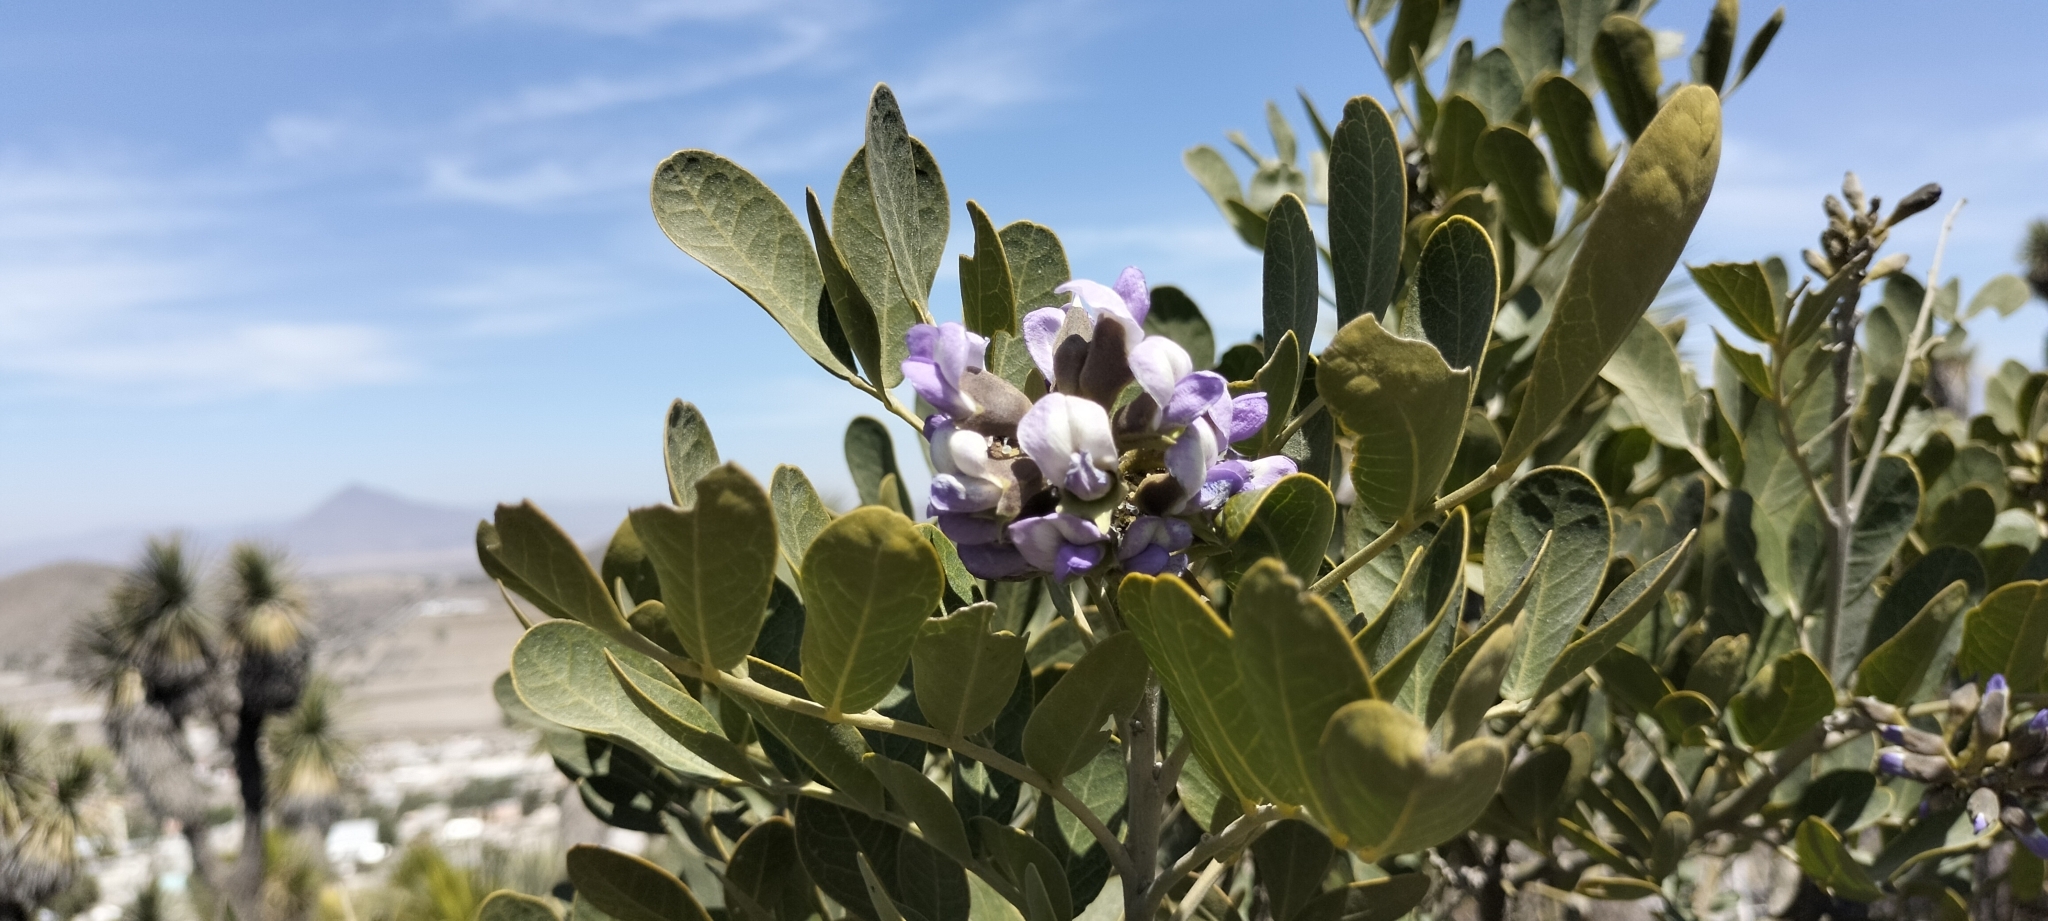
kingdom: Plantae
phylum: Tracheophyta
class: Magnoliopsida
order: Fabales
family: Fabaceae
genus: Dermatophyllum
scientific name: Dermatophyllum secundiflorum
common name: Texas-mountain-laurel
